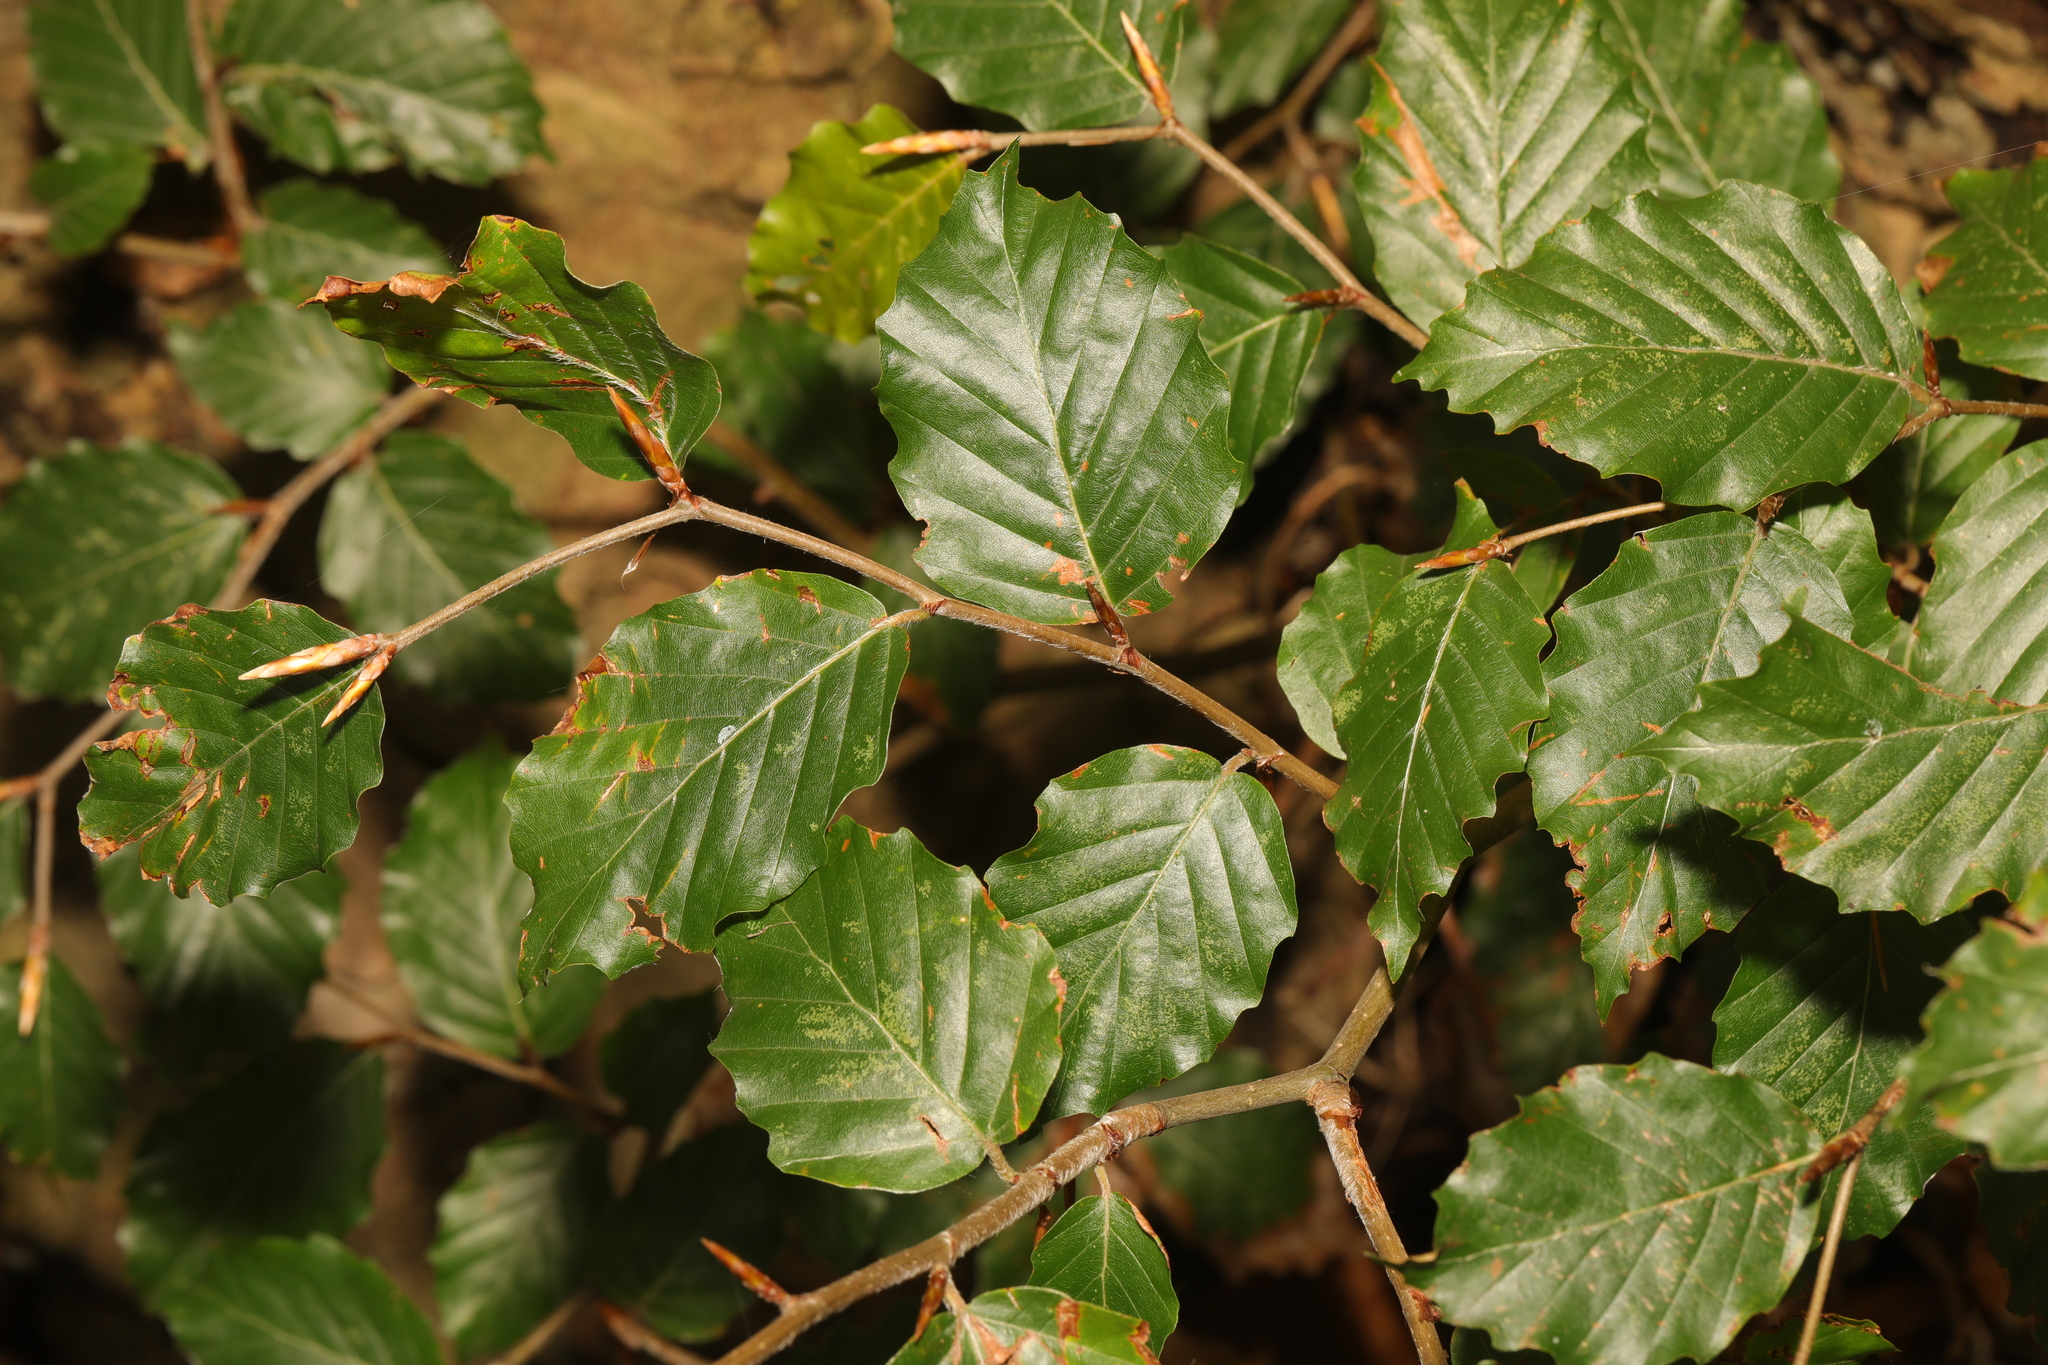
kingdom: Plantae
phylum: Tracheophyta
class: Magnoliopsida
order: Fagales
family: Fagaceae
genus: Fagus
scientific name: Fagus sylvatica
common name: Beech
